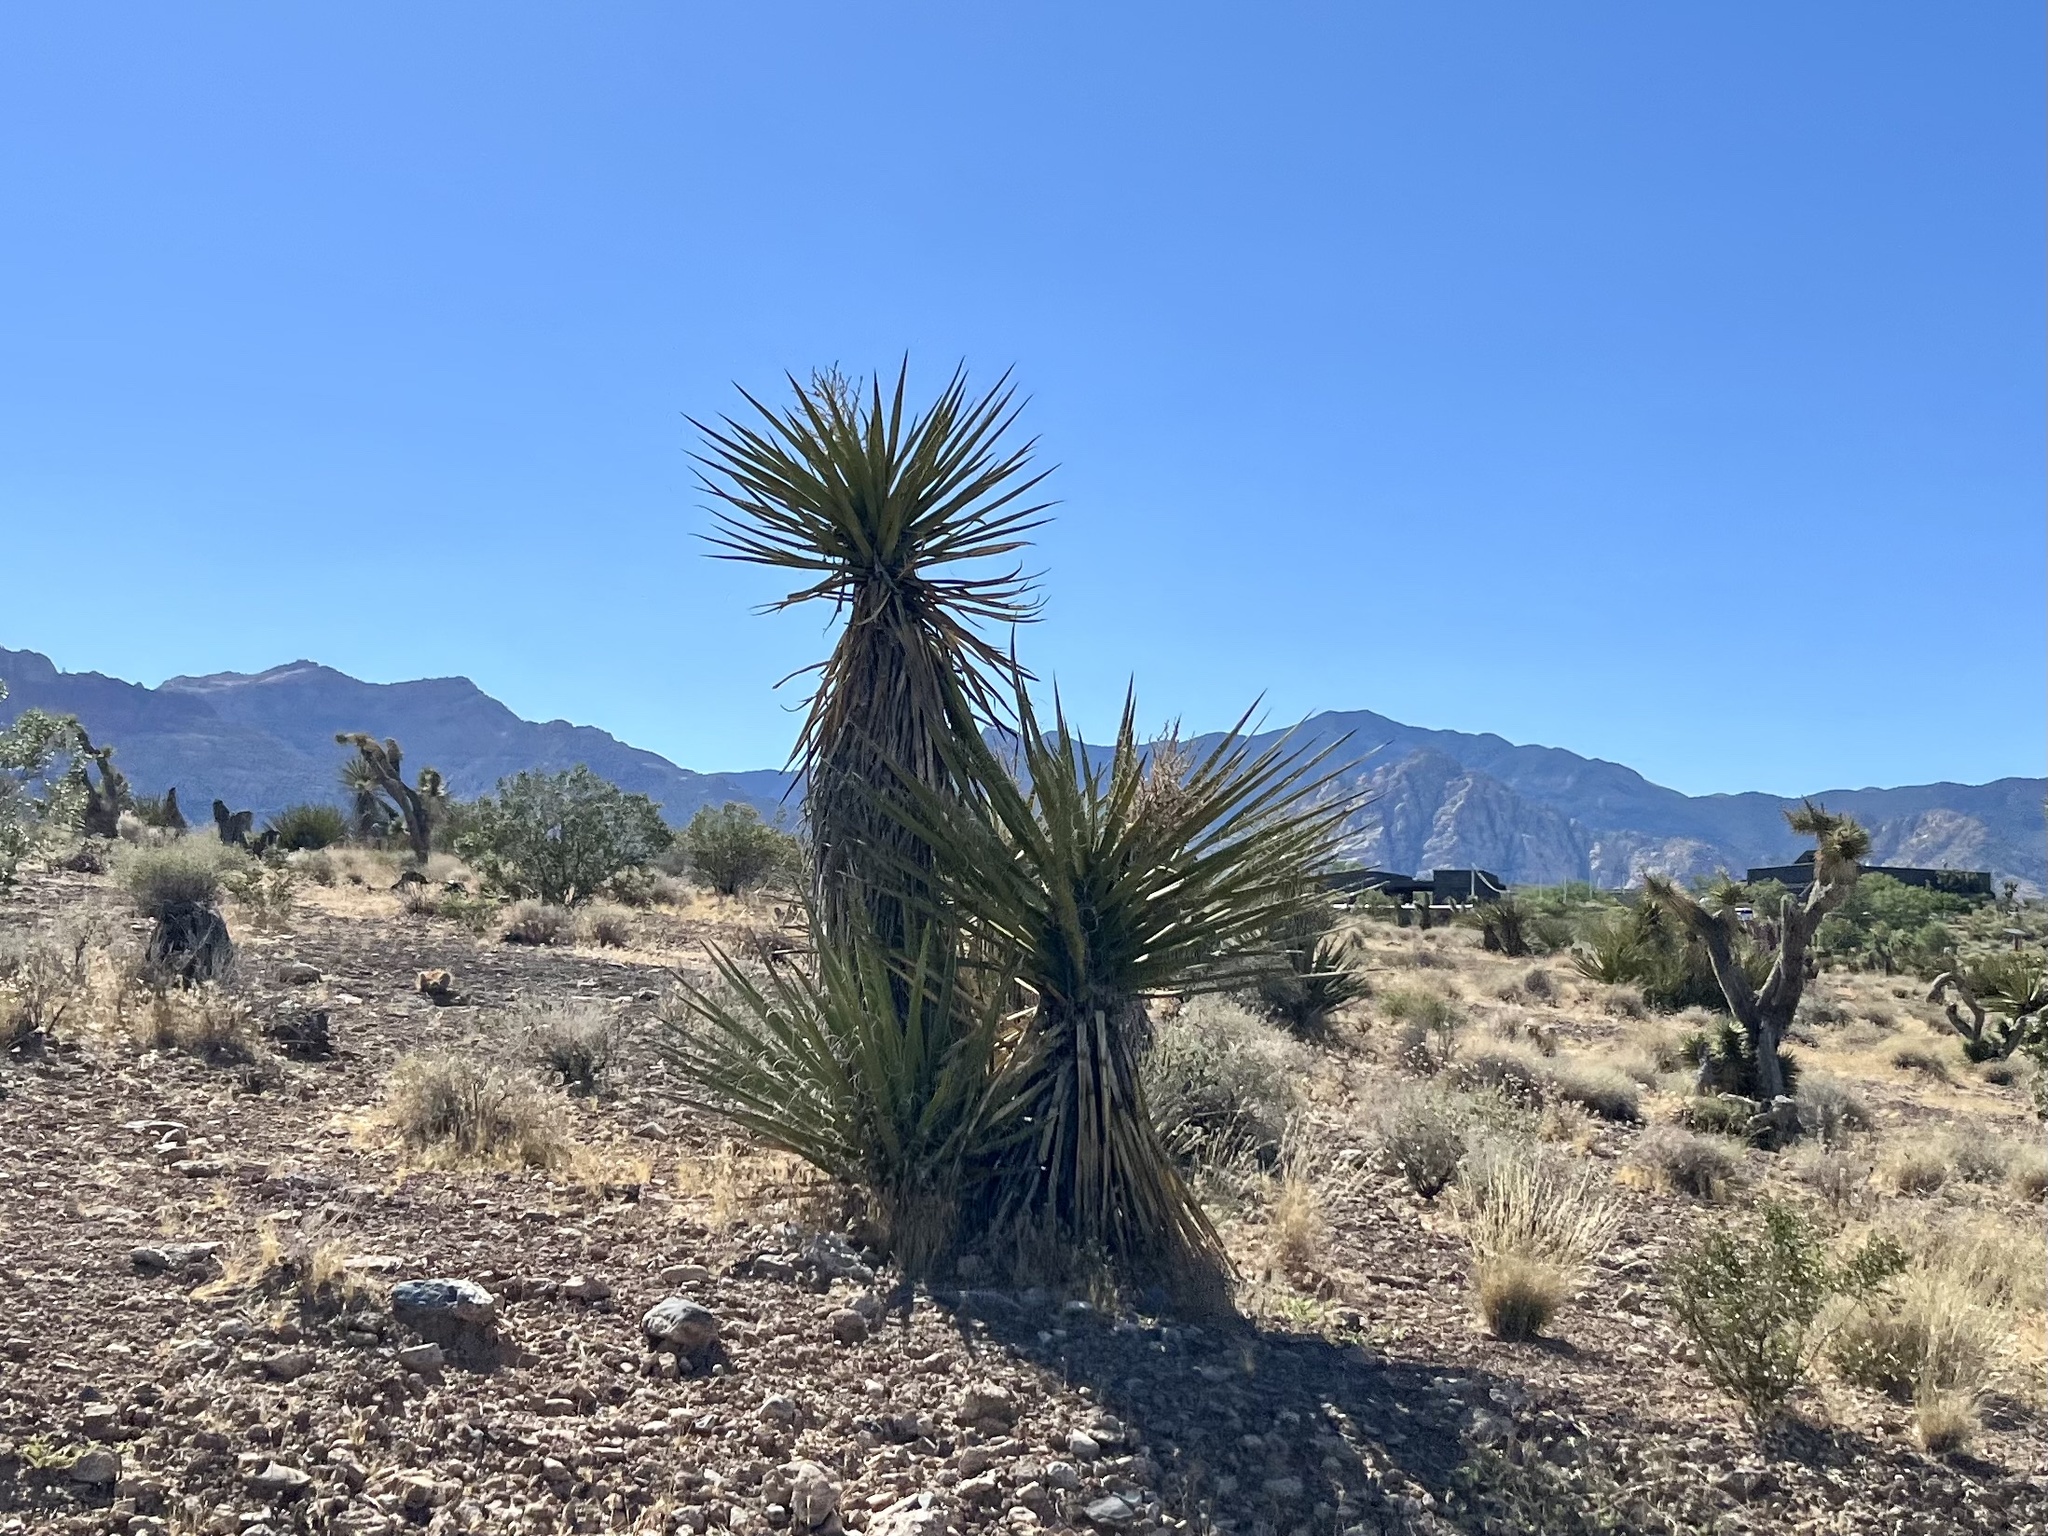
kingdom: Plantae
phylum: Tracheophyta
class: Liliopsida
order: Asparagales
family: Asparagaceae
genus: Yucca
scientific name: Yucca schidigera
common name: Mojave yucca
